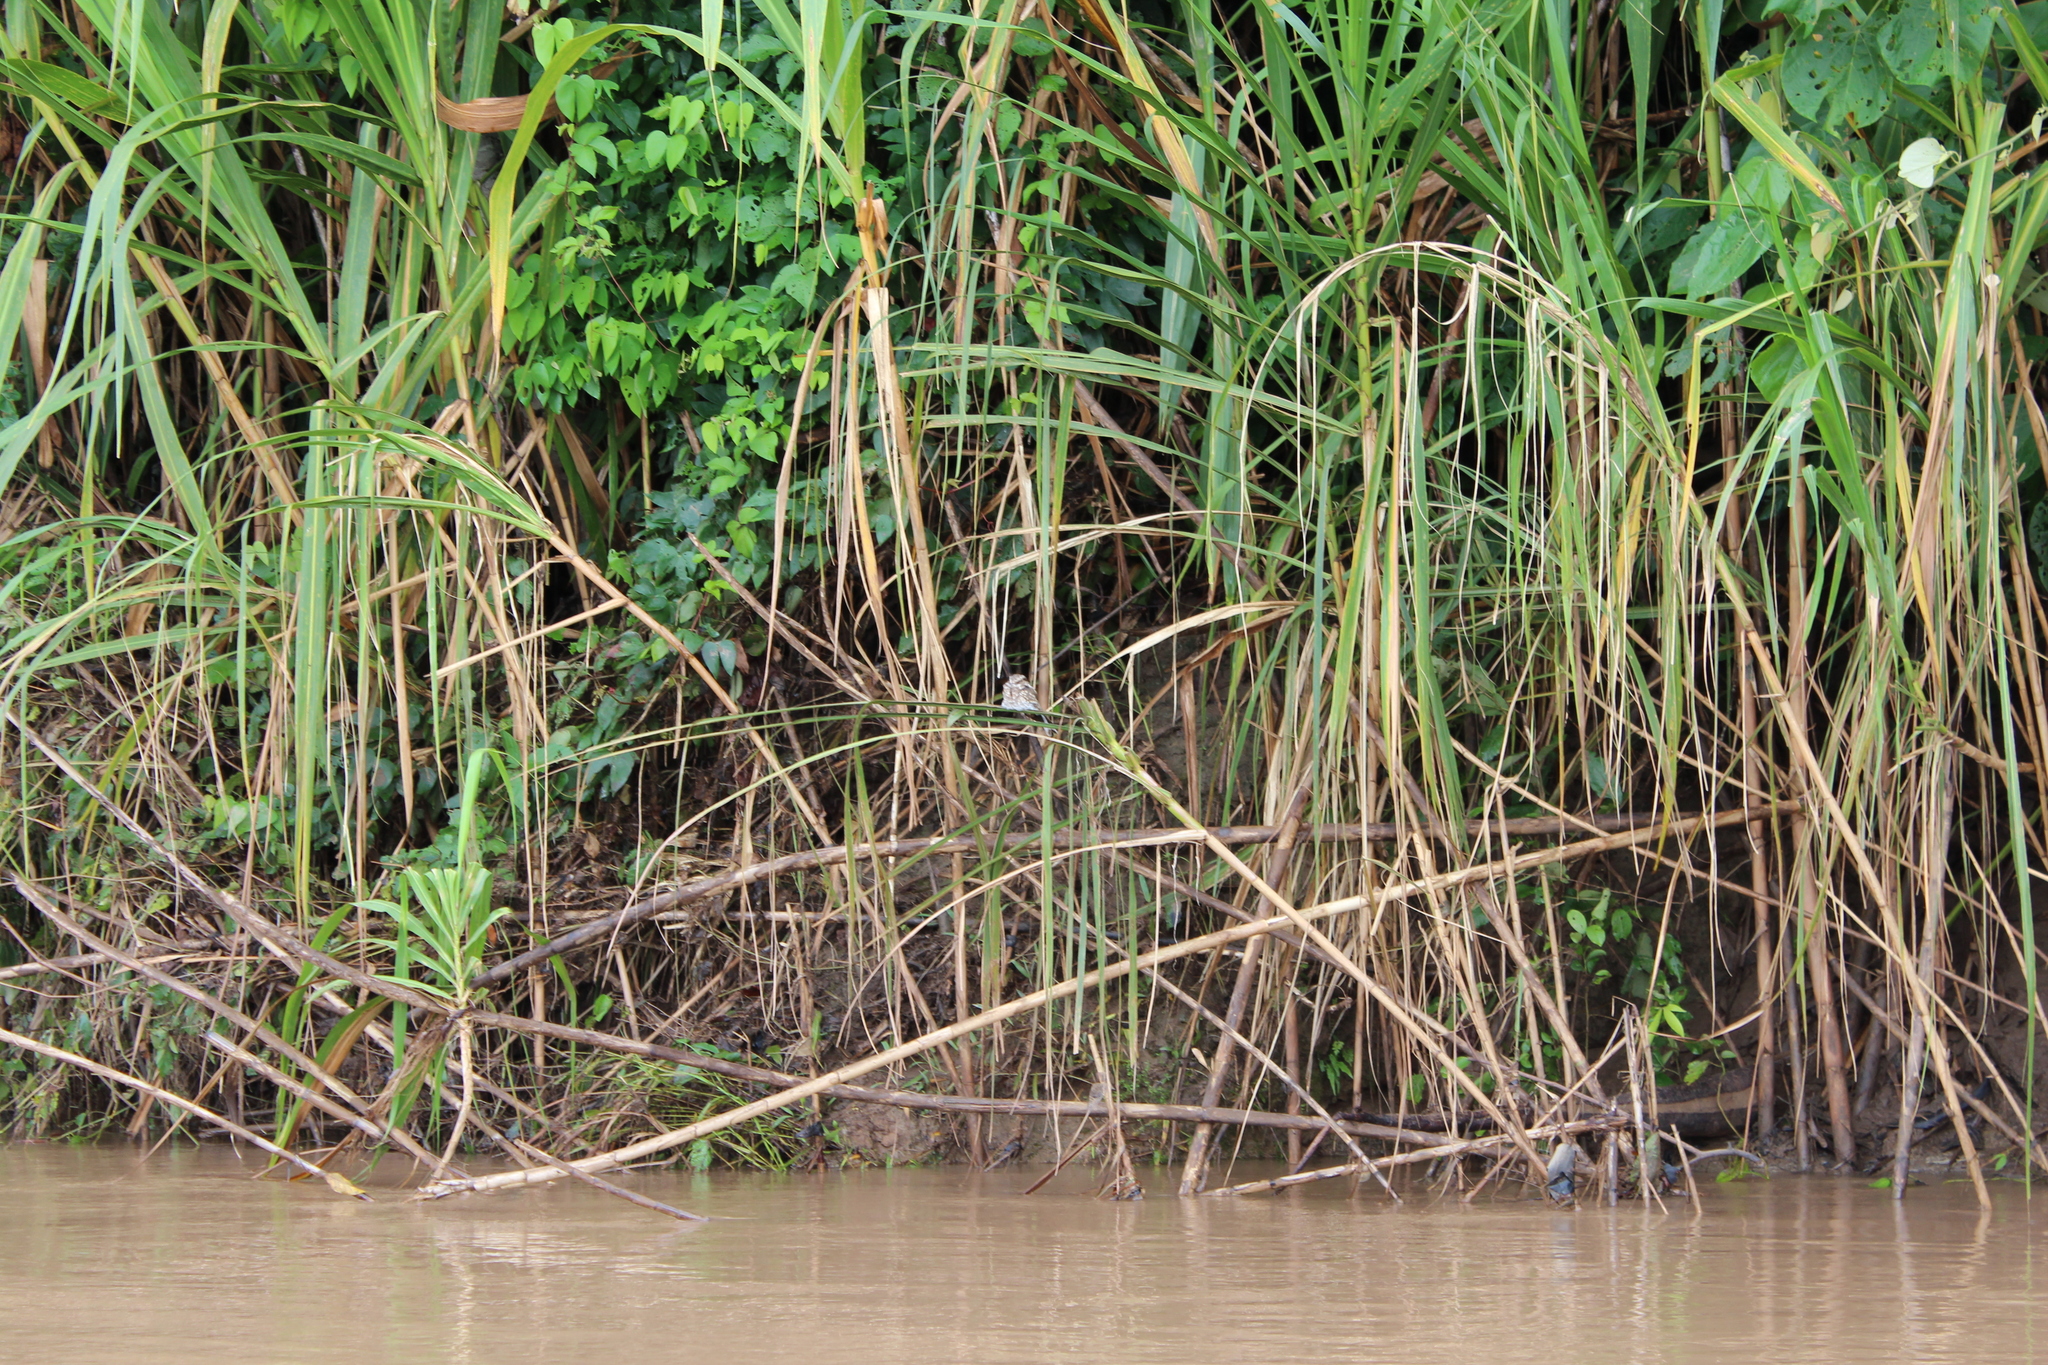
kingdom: Animalia
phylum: Chordata
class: Aves
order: Caprimulgiformes
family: Caprimulgidae
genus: Hydropsalis
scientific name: Hydropsalis climacocerca
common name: Ladder-tailed nightjar
